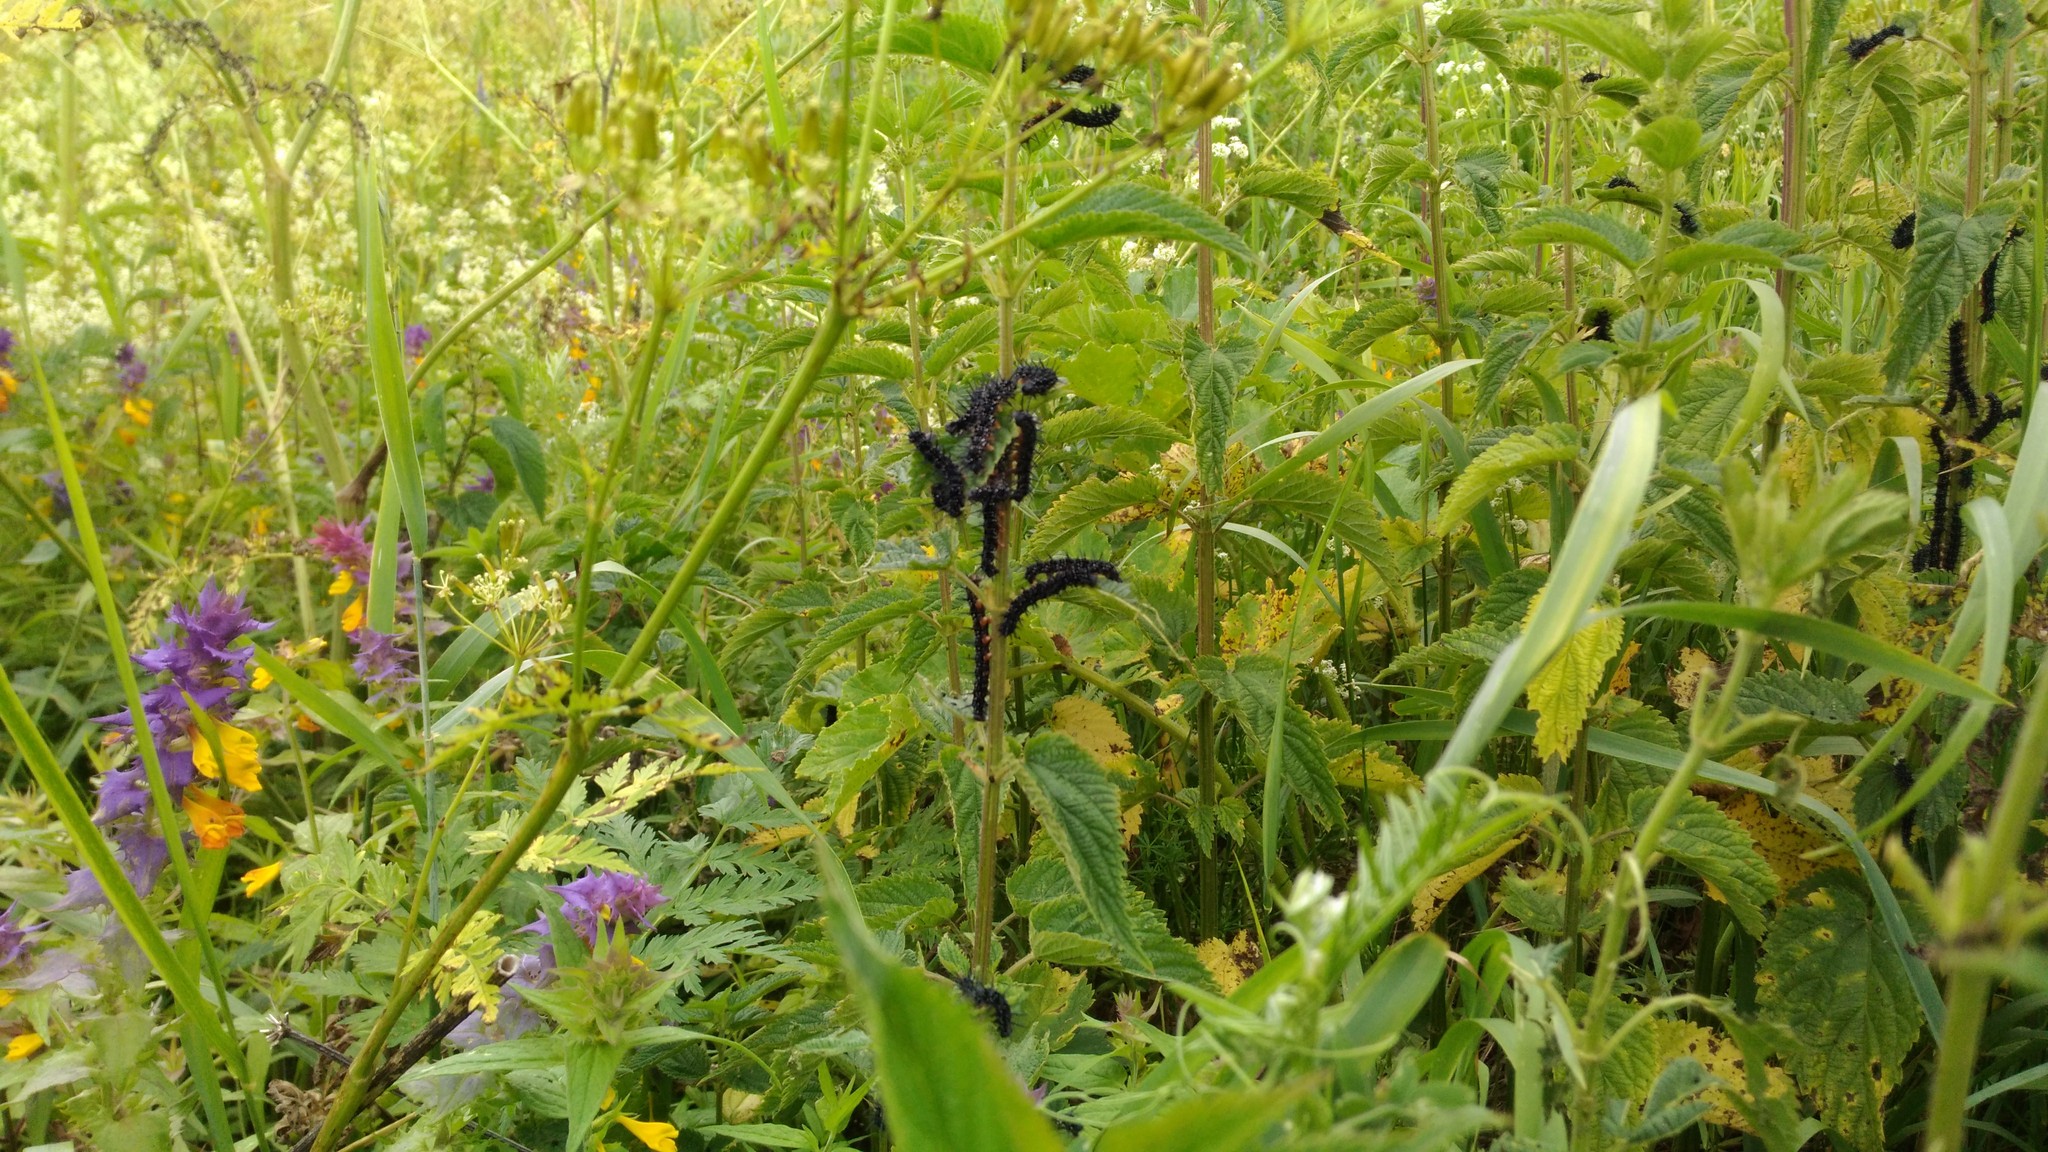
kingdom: Animalia
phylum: Arthropoda
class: Insecta
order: Lepidoptera
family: Nymphalidae
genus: Aglais
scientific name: Aglais io
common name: Peacock
